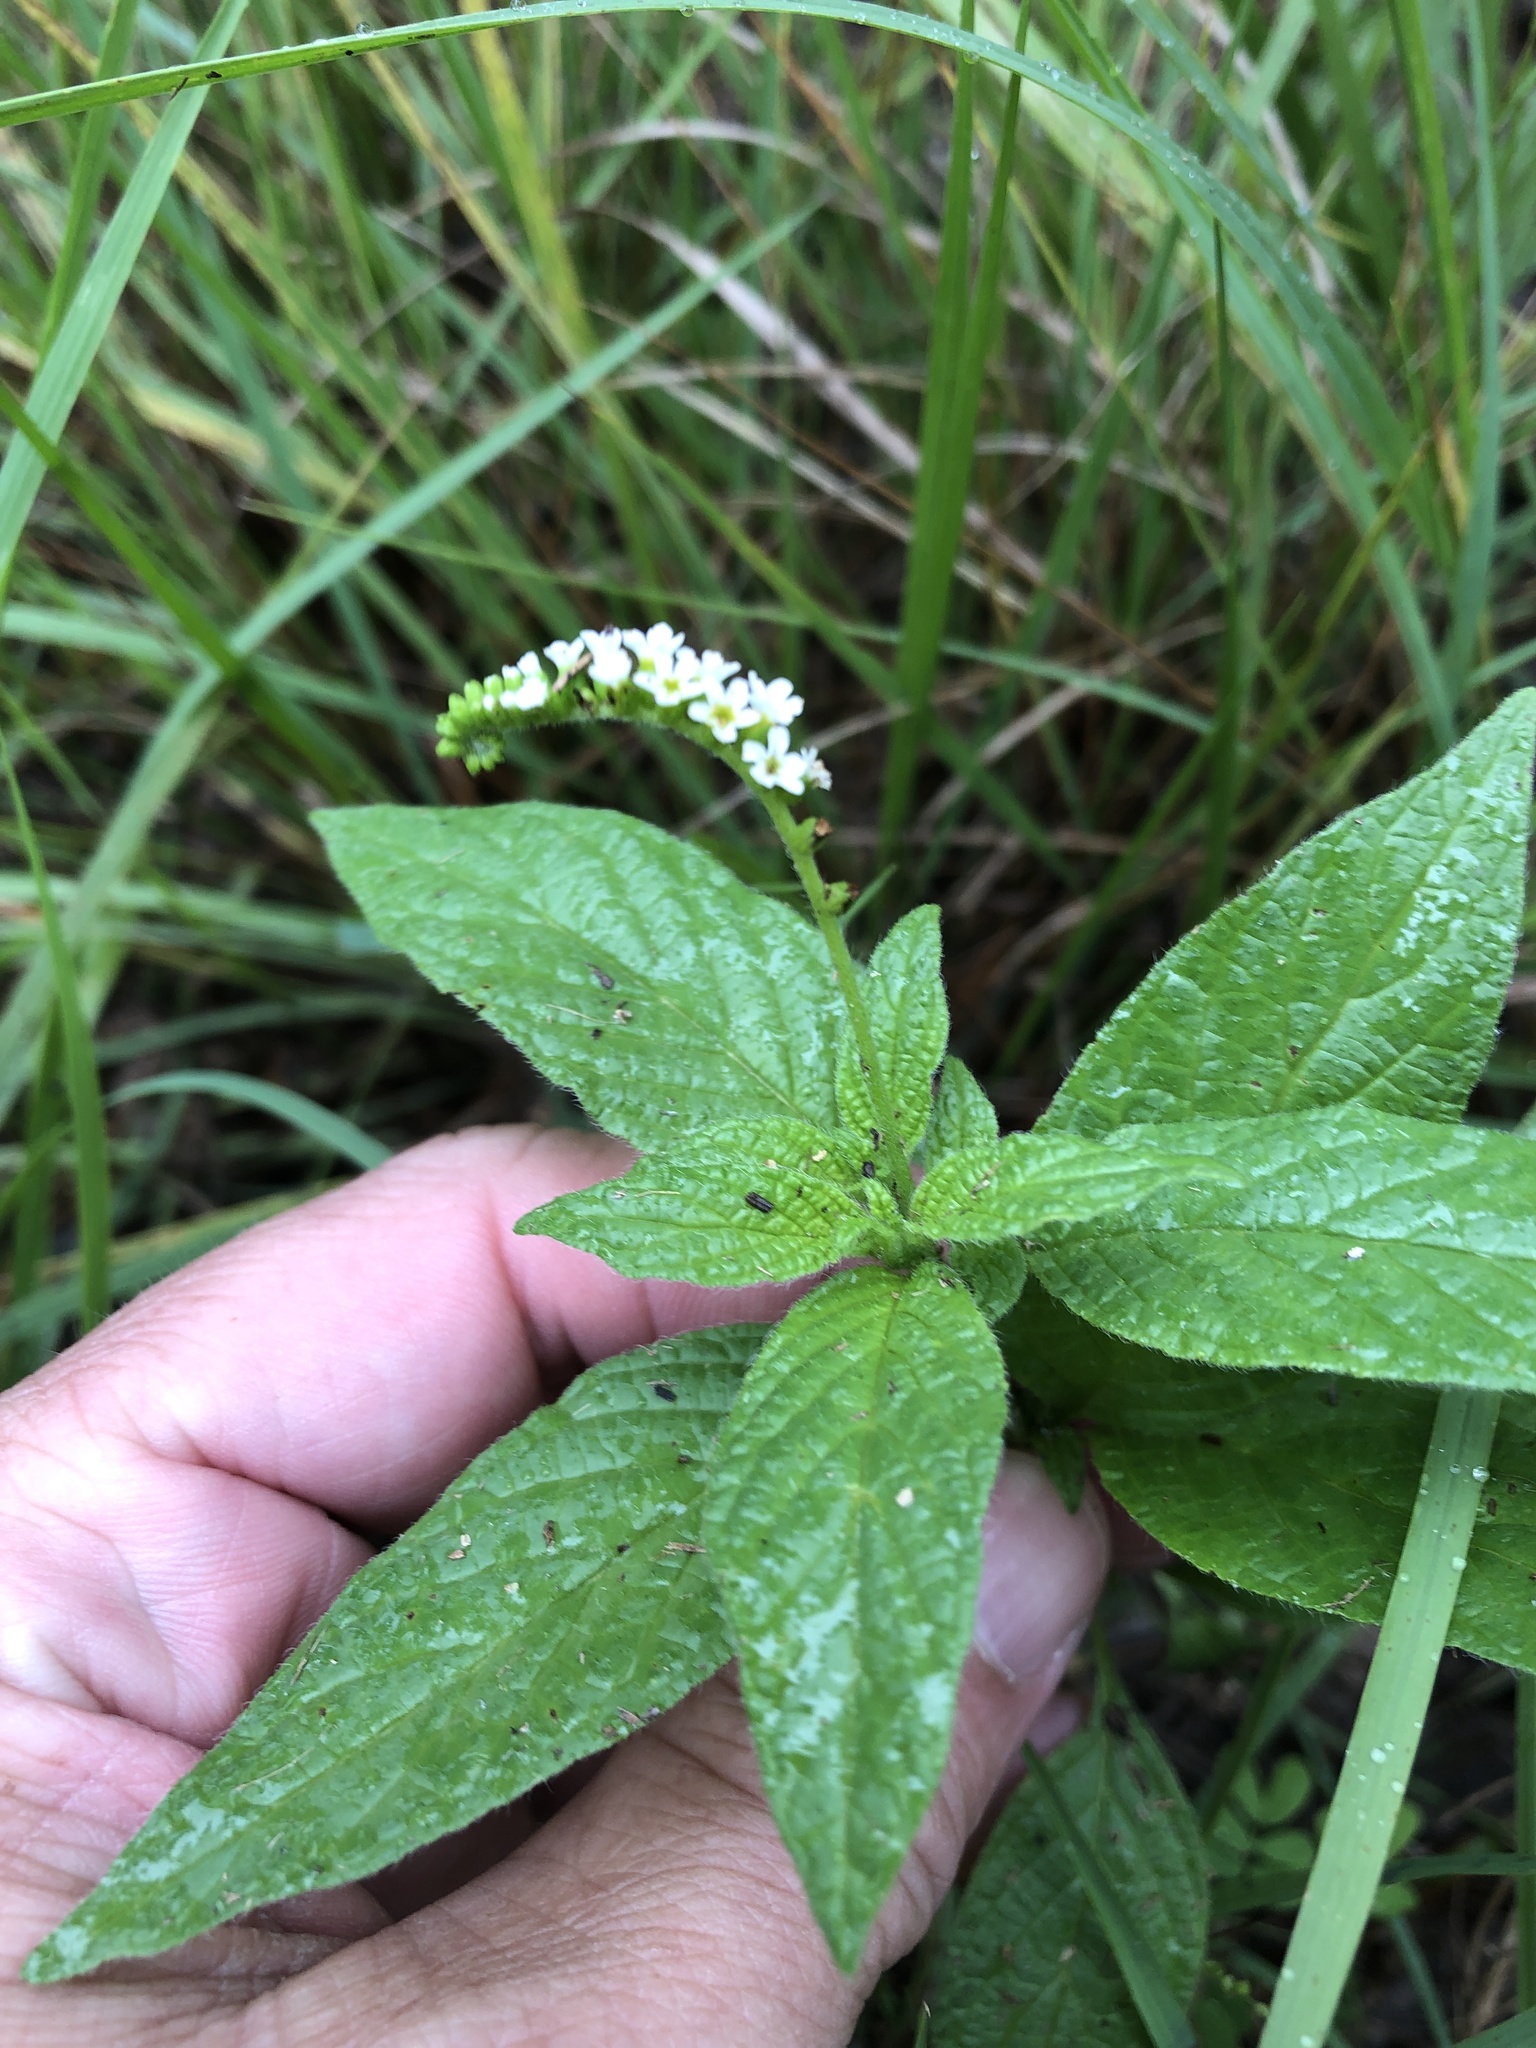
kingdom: Plantae
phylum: Tracheophyta
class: Magnoliopsida
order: Boraginales
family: Heliotropiaceae
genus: Heliotropium
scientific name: Heliotropium angiospermum
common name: Eye bright
